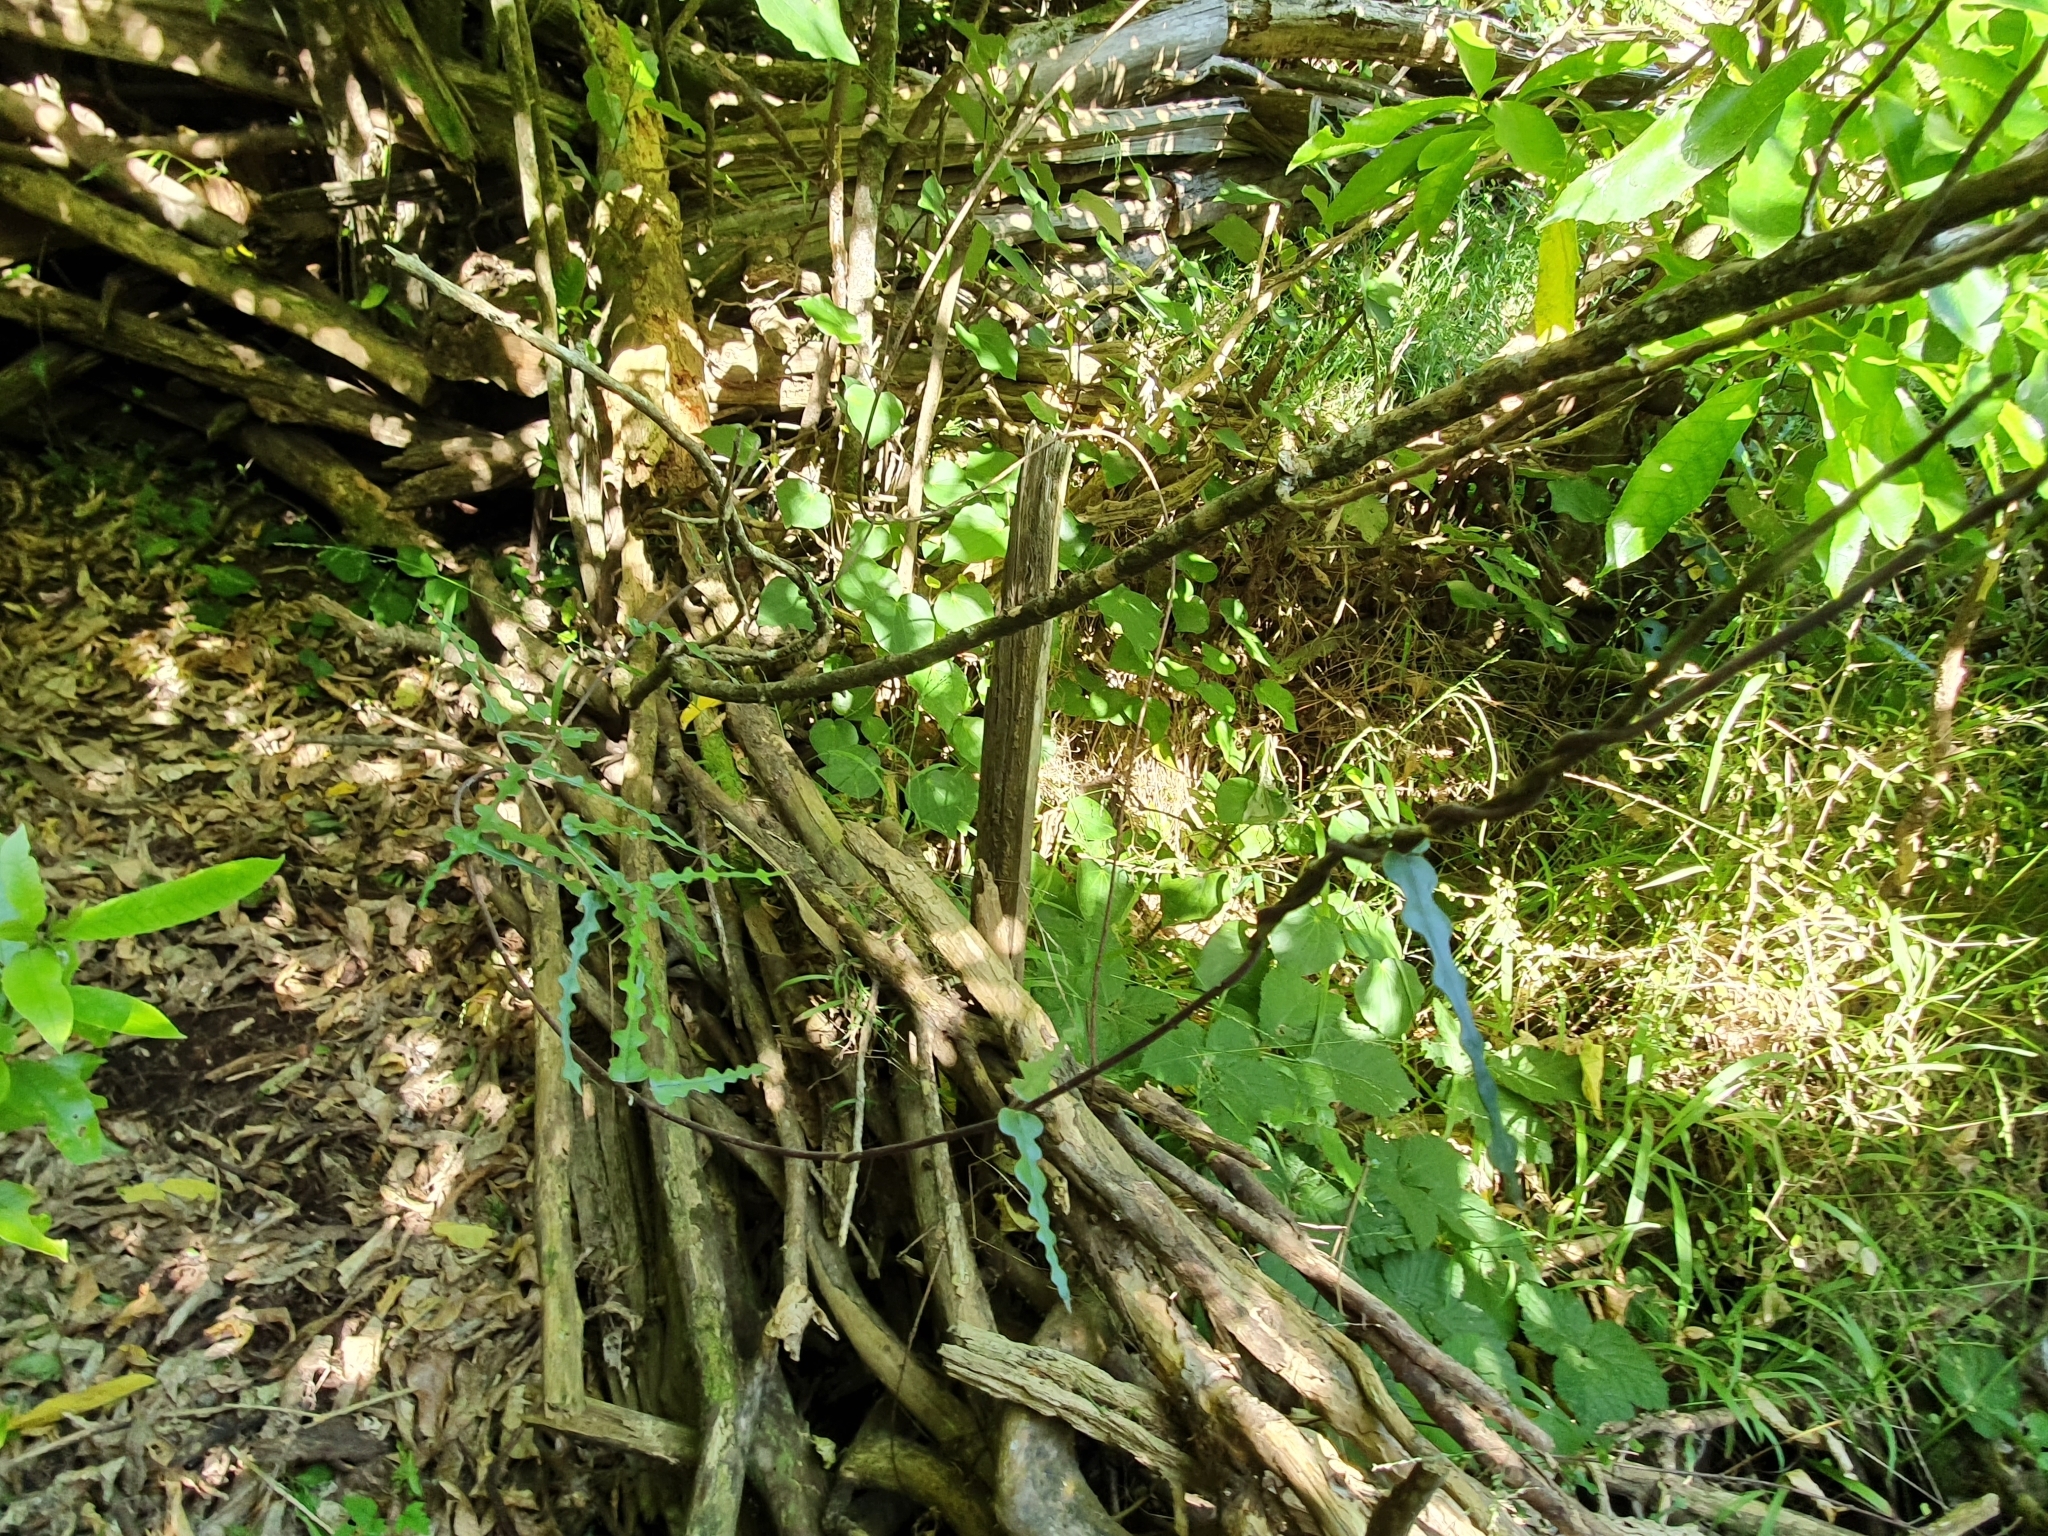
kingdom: Plantae
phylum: Tracheophyta
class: Magnoliopsida
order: Gentianales
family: Apocynaceae
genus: Parsonsia
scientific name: Parsonsia heterophylla
